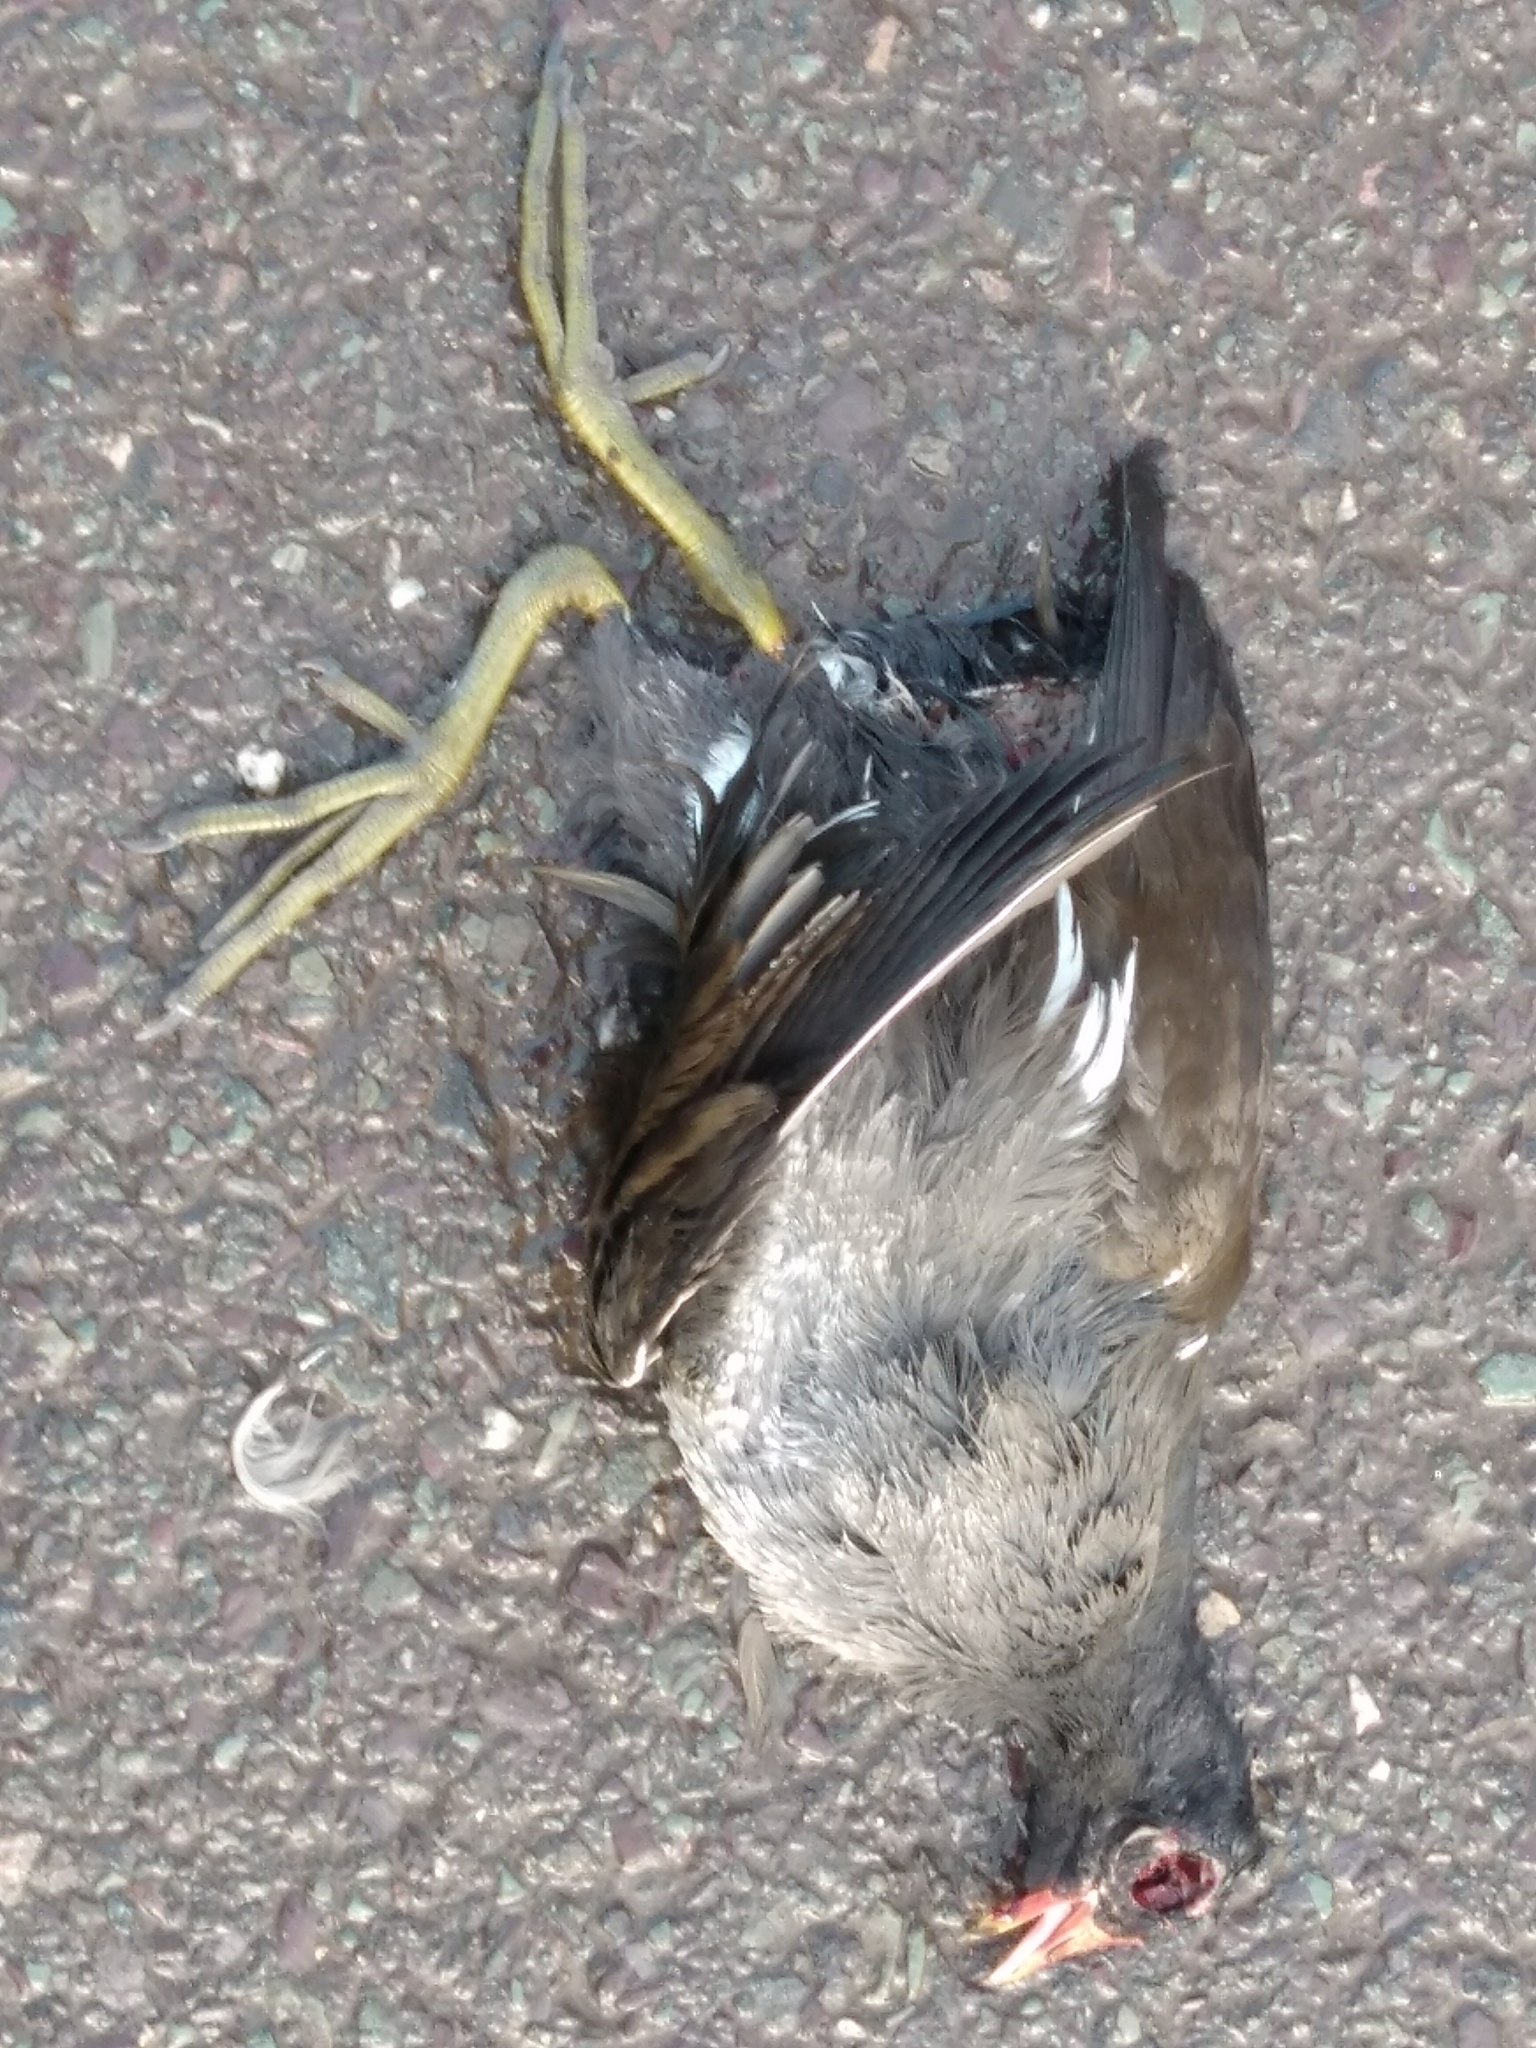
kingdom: Animalia
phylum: Chordata
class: Aves
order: Gruiformes
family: Rallidae
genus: Gallinula
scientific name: Gallinula chloropus
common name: Common moorhen
